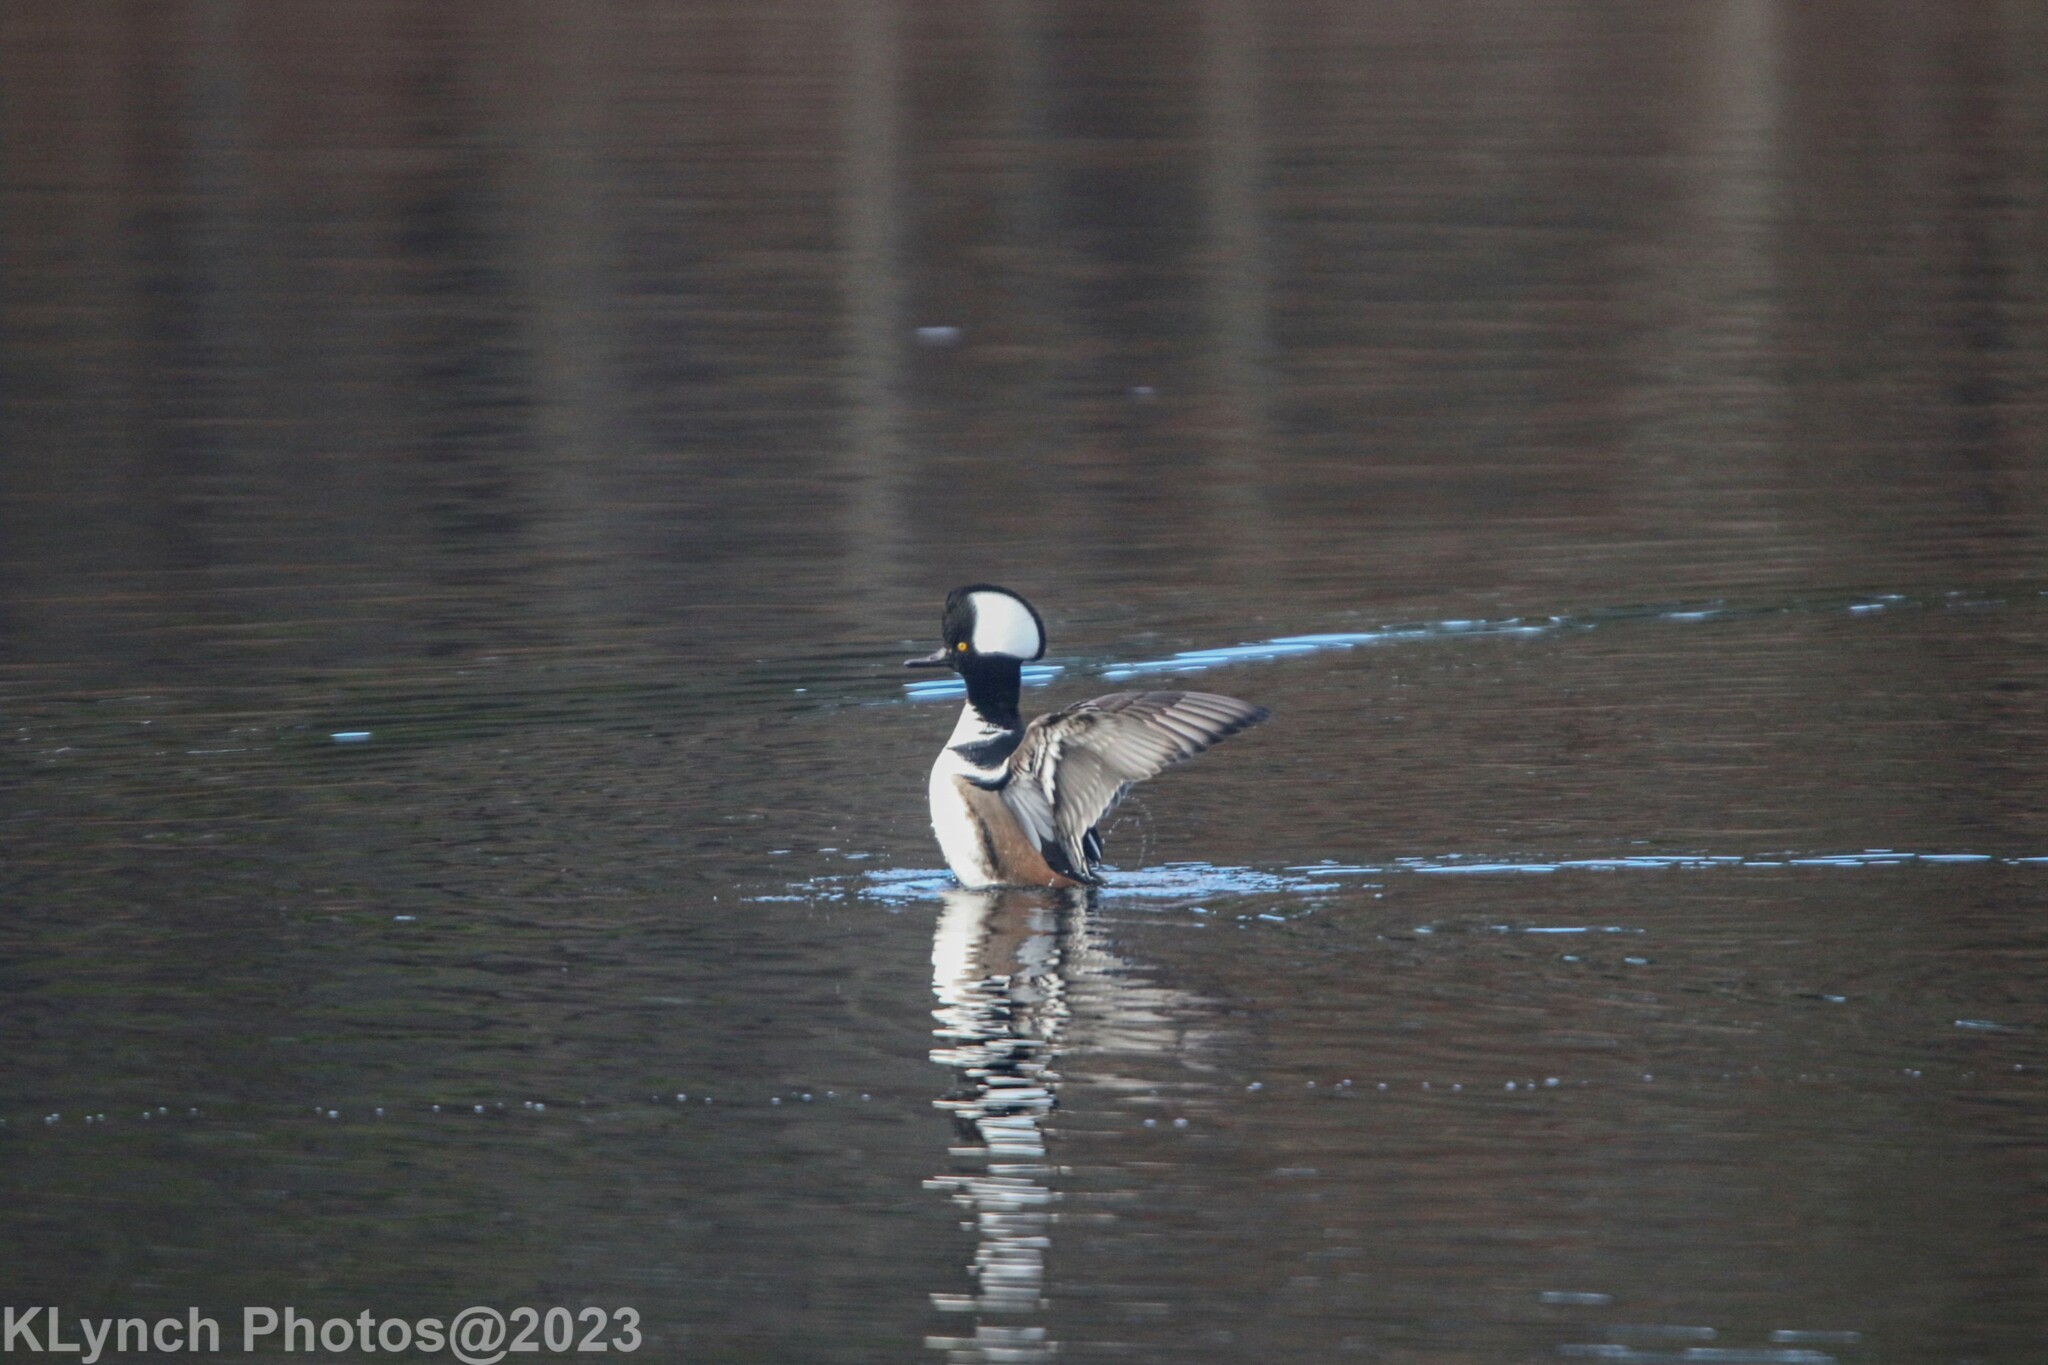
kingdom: Animalia
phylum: Chordata
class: Aves
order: Anseriformes
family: Anatidae
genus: Lophodytes
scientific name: Lophodytes cucullatus
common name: Hooded merganser
